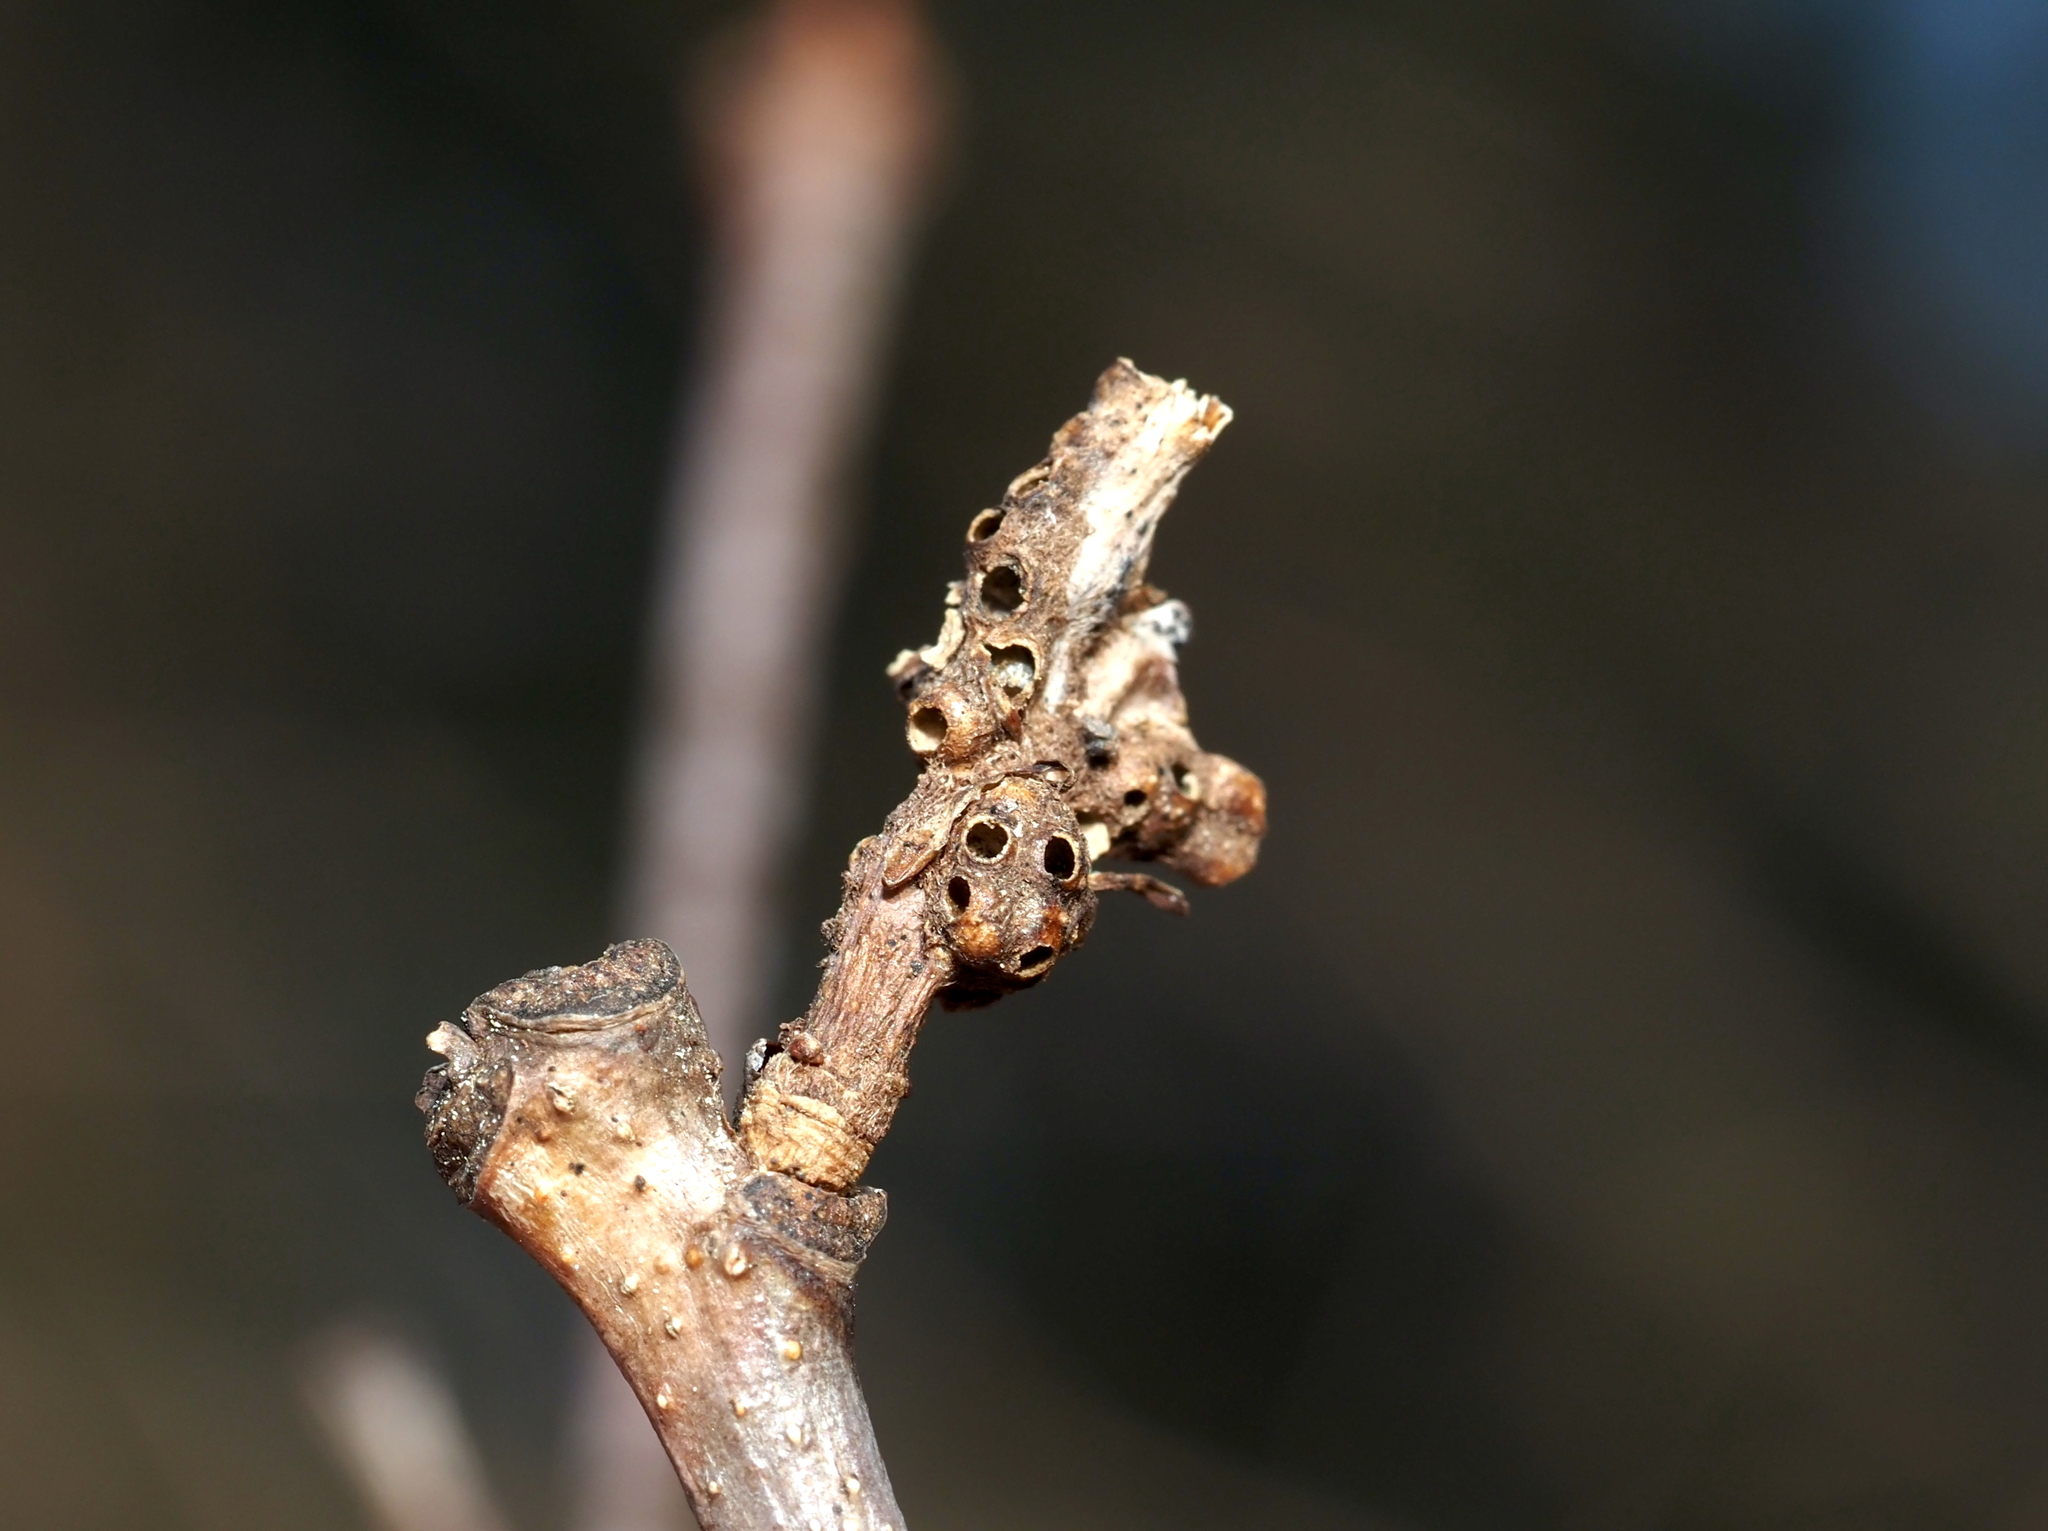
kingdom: Animalia
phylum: Arthropoda
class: Insecta
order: Hymenoptera
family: Cynipidae
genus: Neuroterus
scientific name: Neuroterus minutulus
